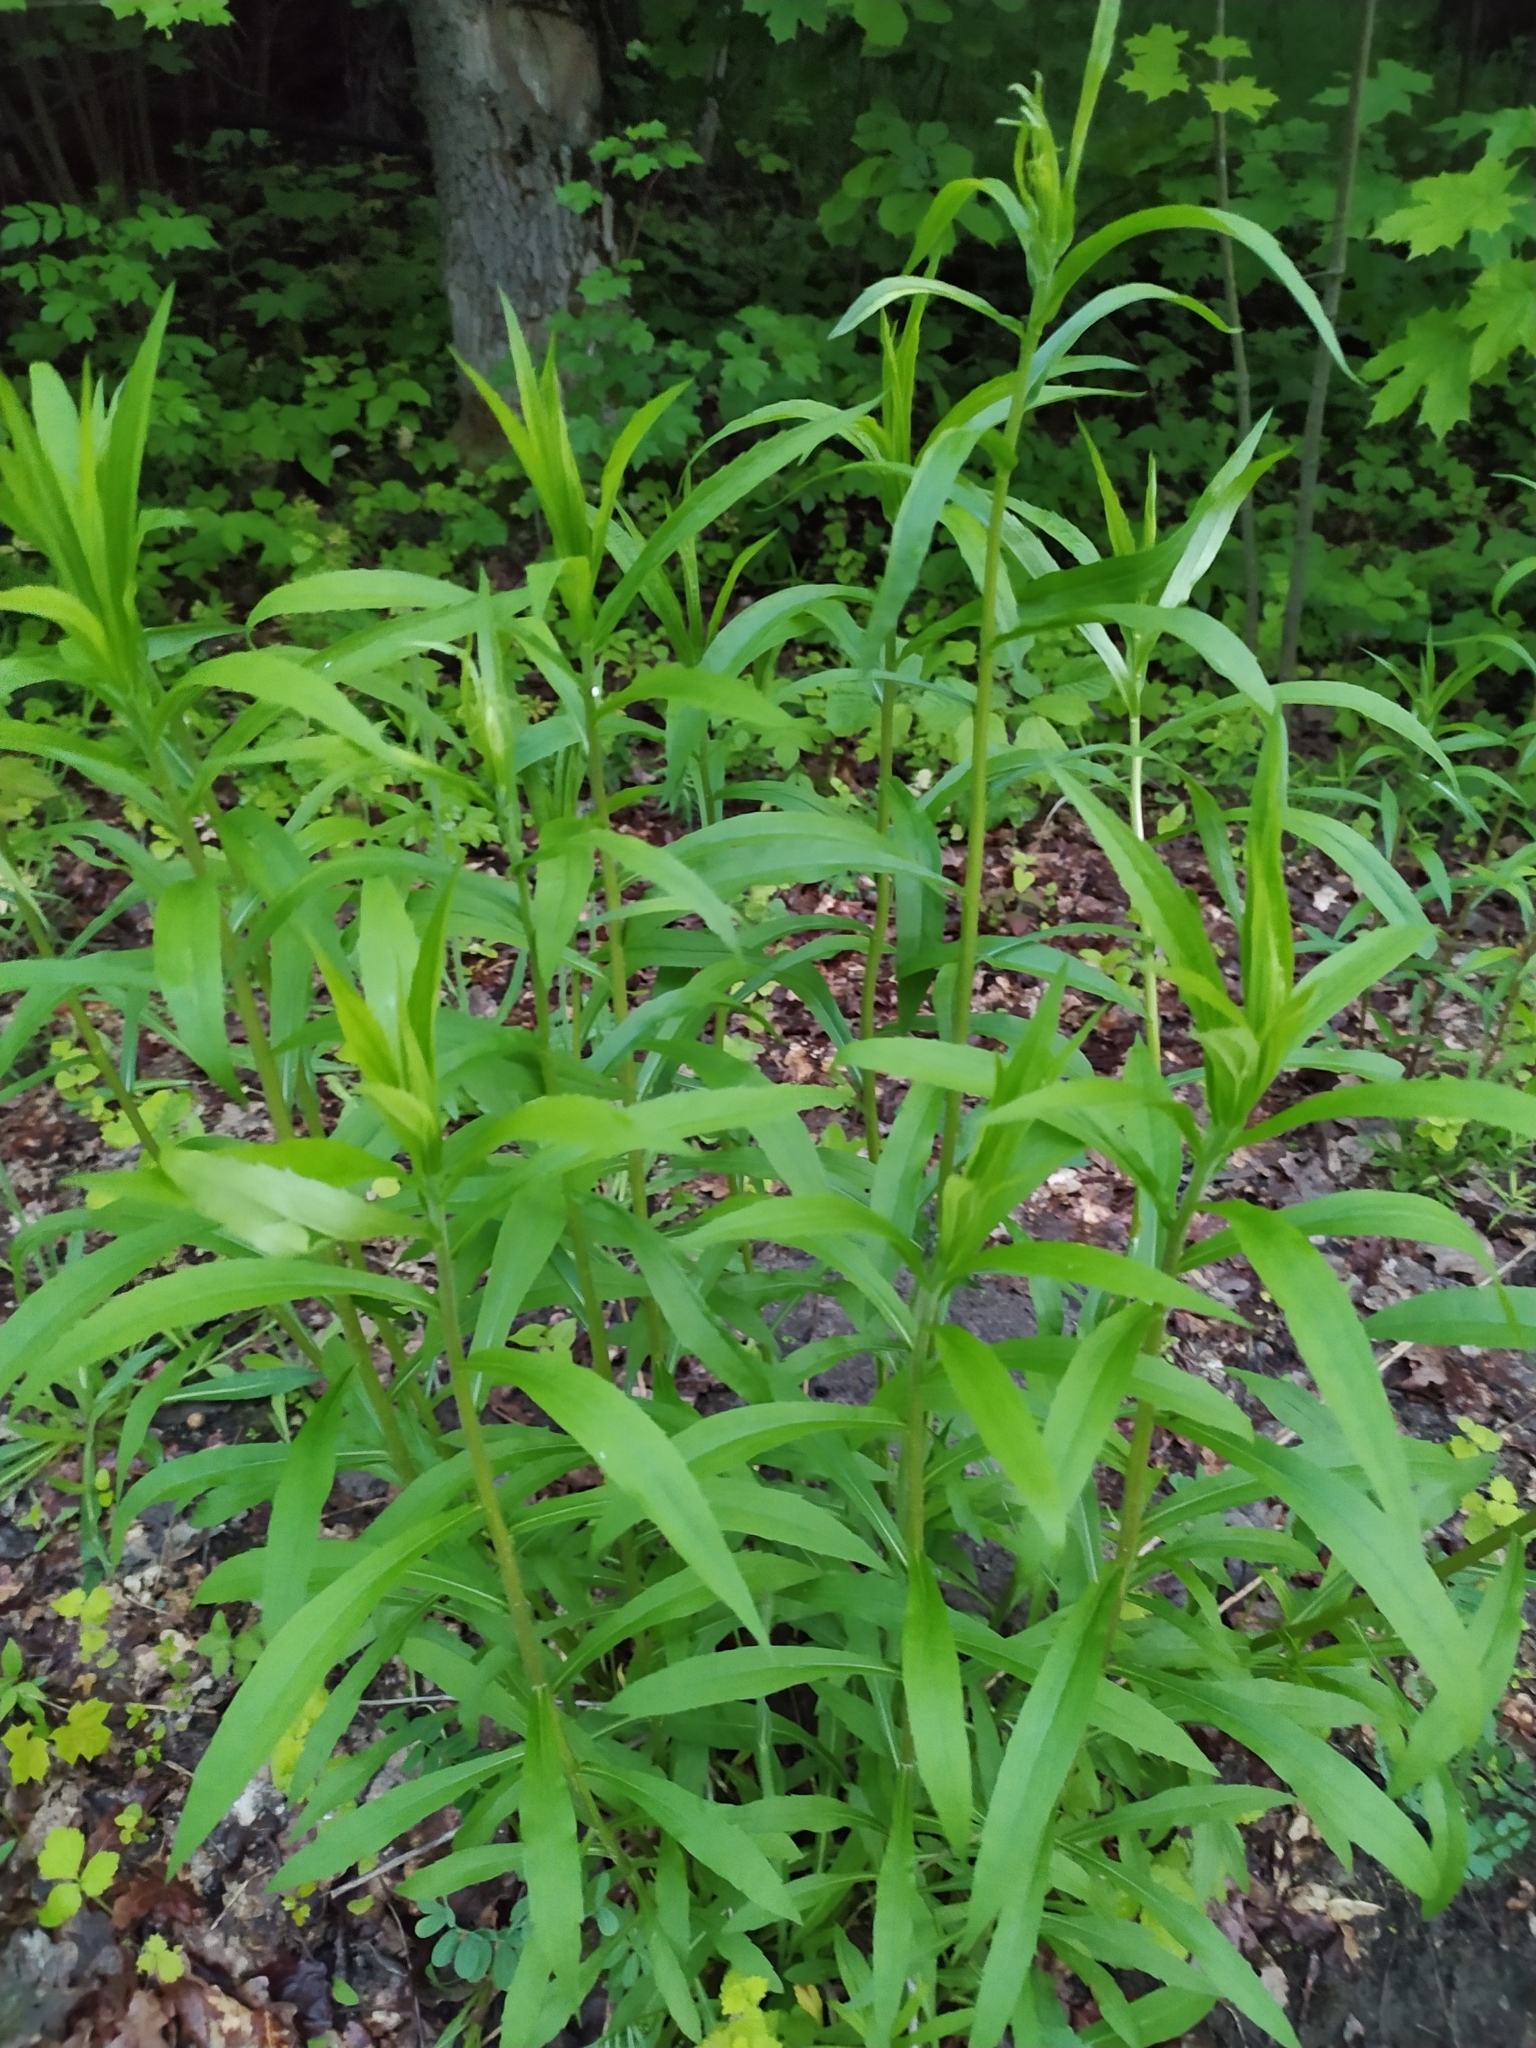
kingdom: Plantae
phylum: Tracheophyta
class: Magnoliopsida
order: Asterales
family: Asteraceae
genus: Solidago
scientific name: Solidago canadensis
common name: Canada goldenrod
